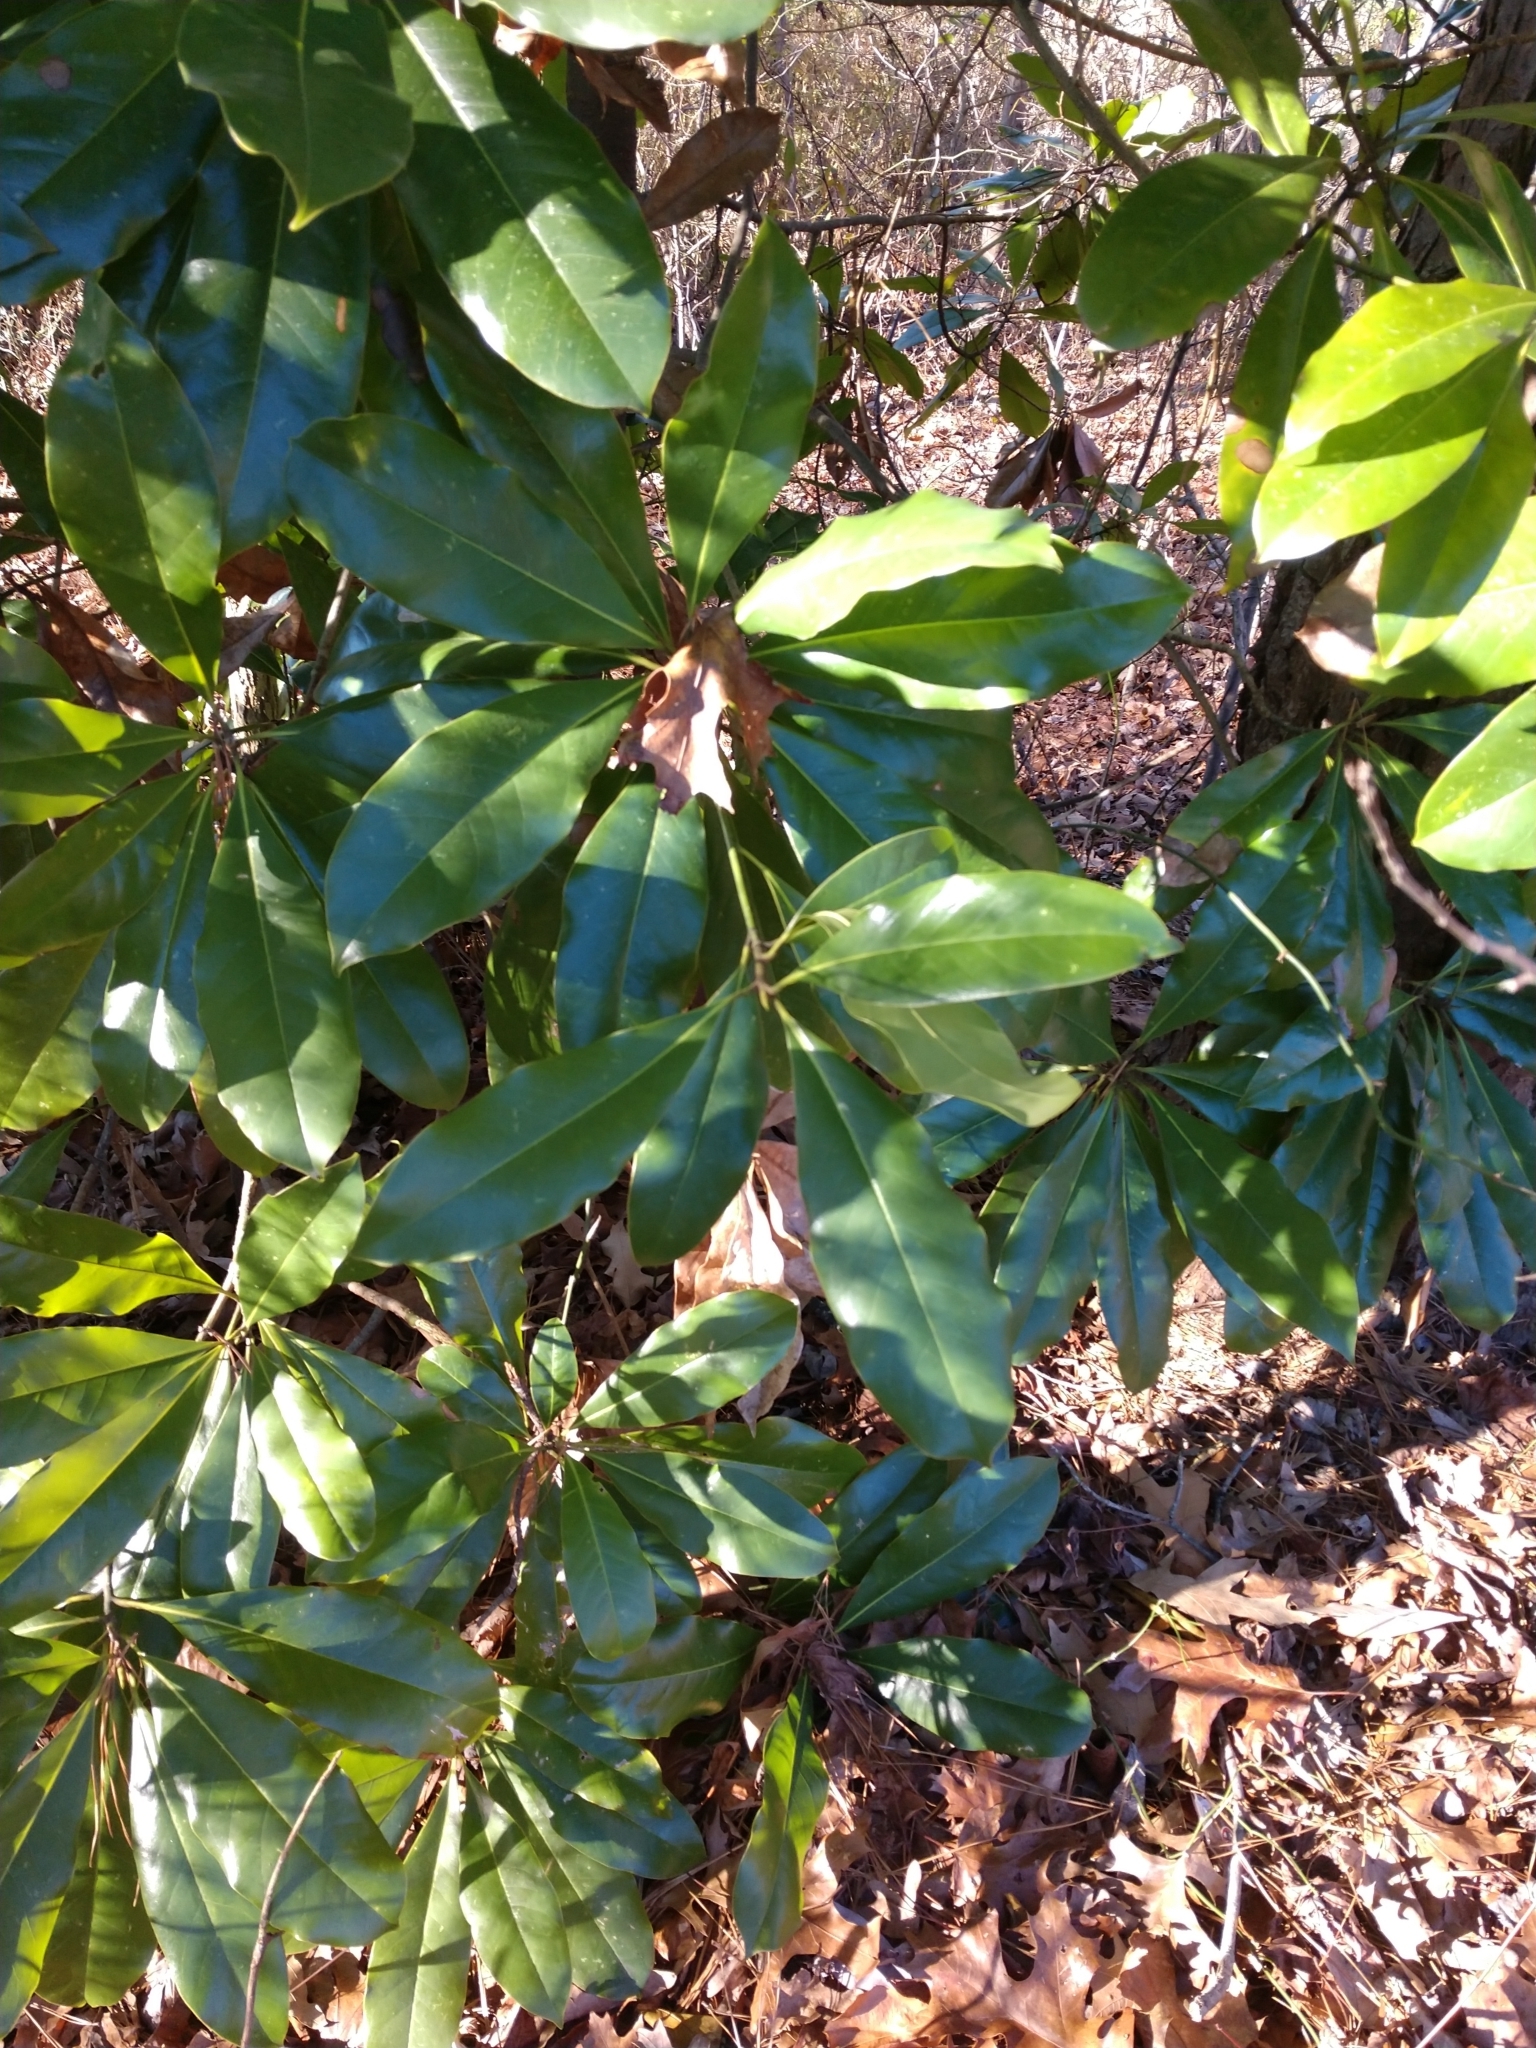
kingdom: Plantae
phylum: Tracheophyta
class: Magnoliopsida
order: Magnoliales
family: Magnoliaceae
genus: Magnolia
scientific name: Magnolia grandiflora
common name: Southern magnolia
